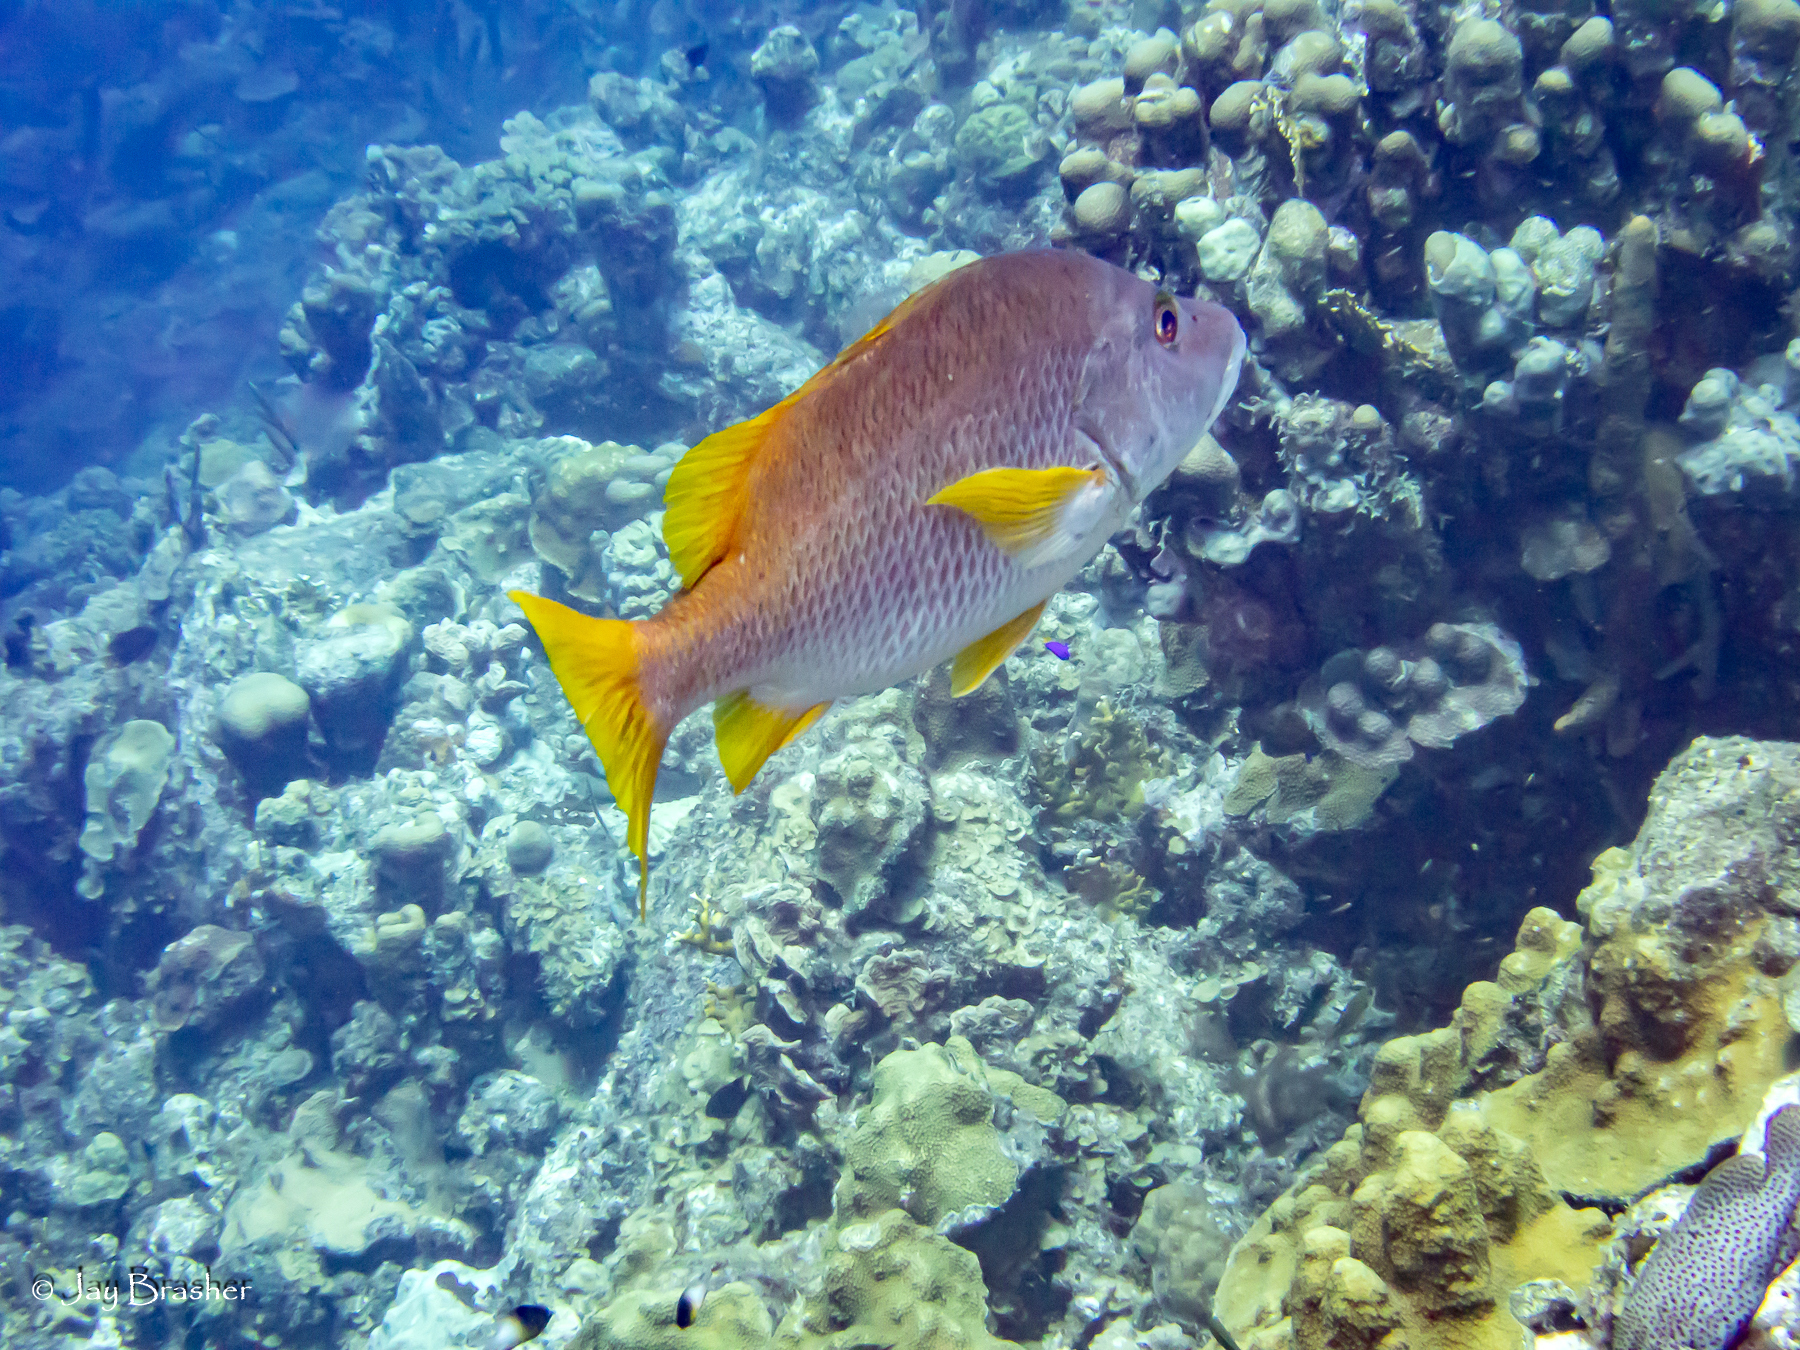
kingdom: Animalia
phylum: Chordata
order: Perciformes
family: Lutjanidae
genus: Lutjanus
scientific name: Lutjanus apodus
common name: Schoolmaster
